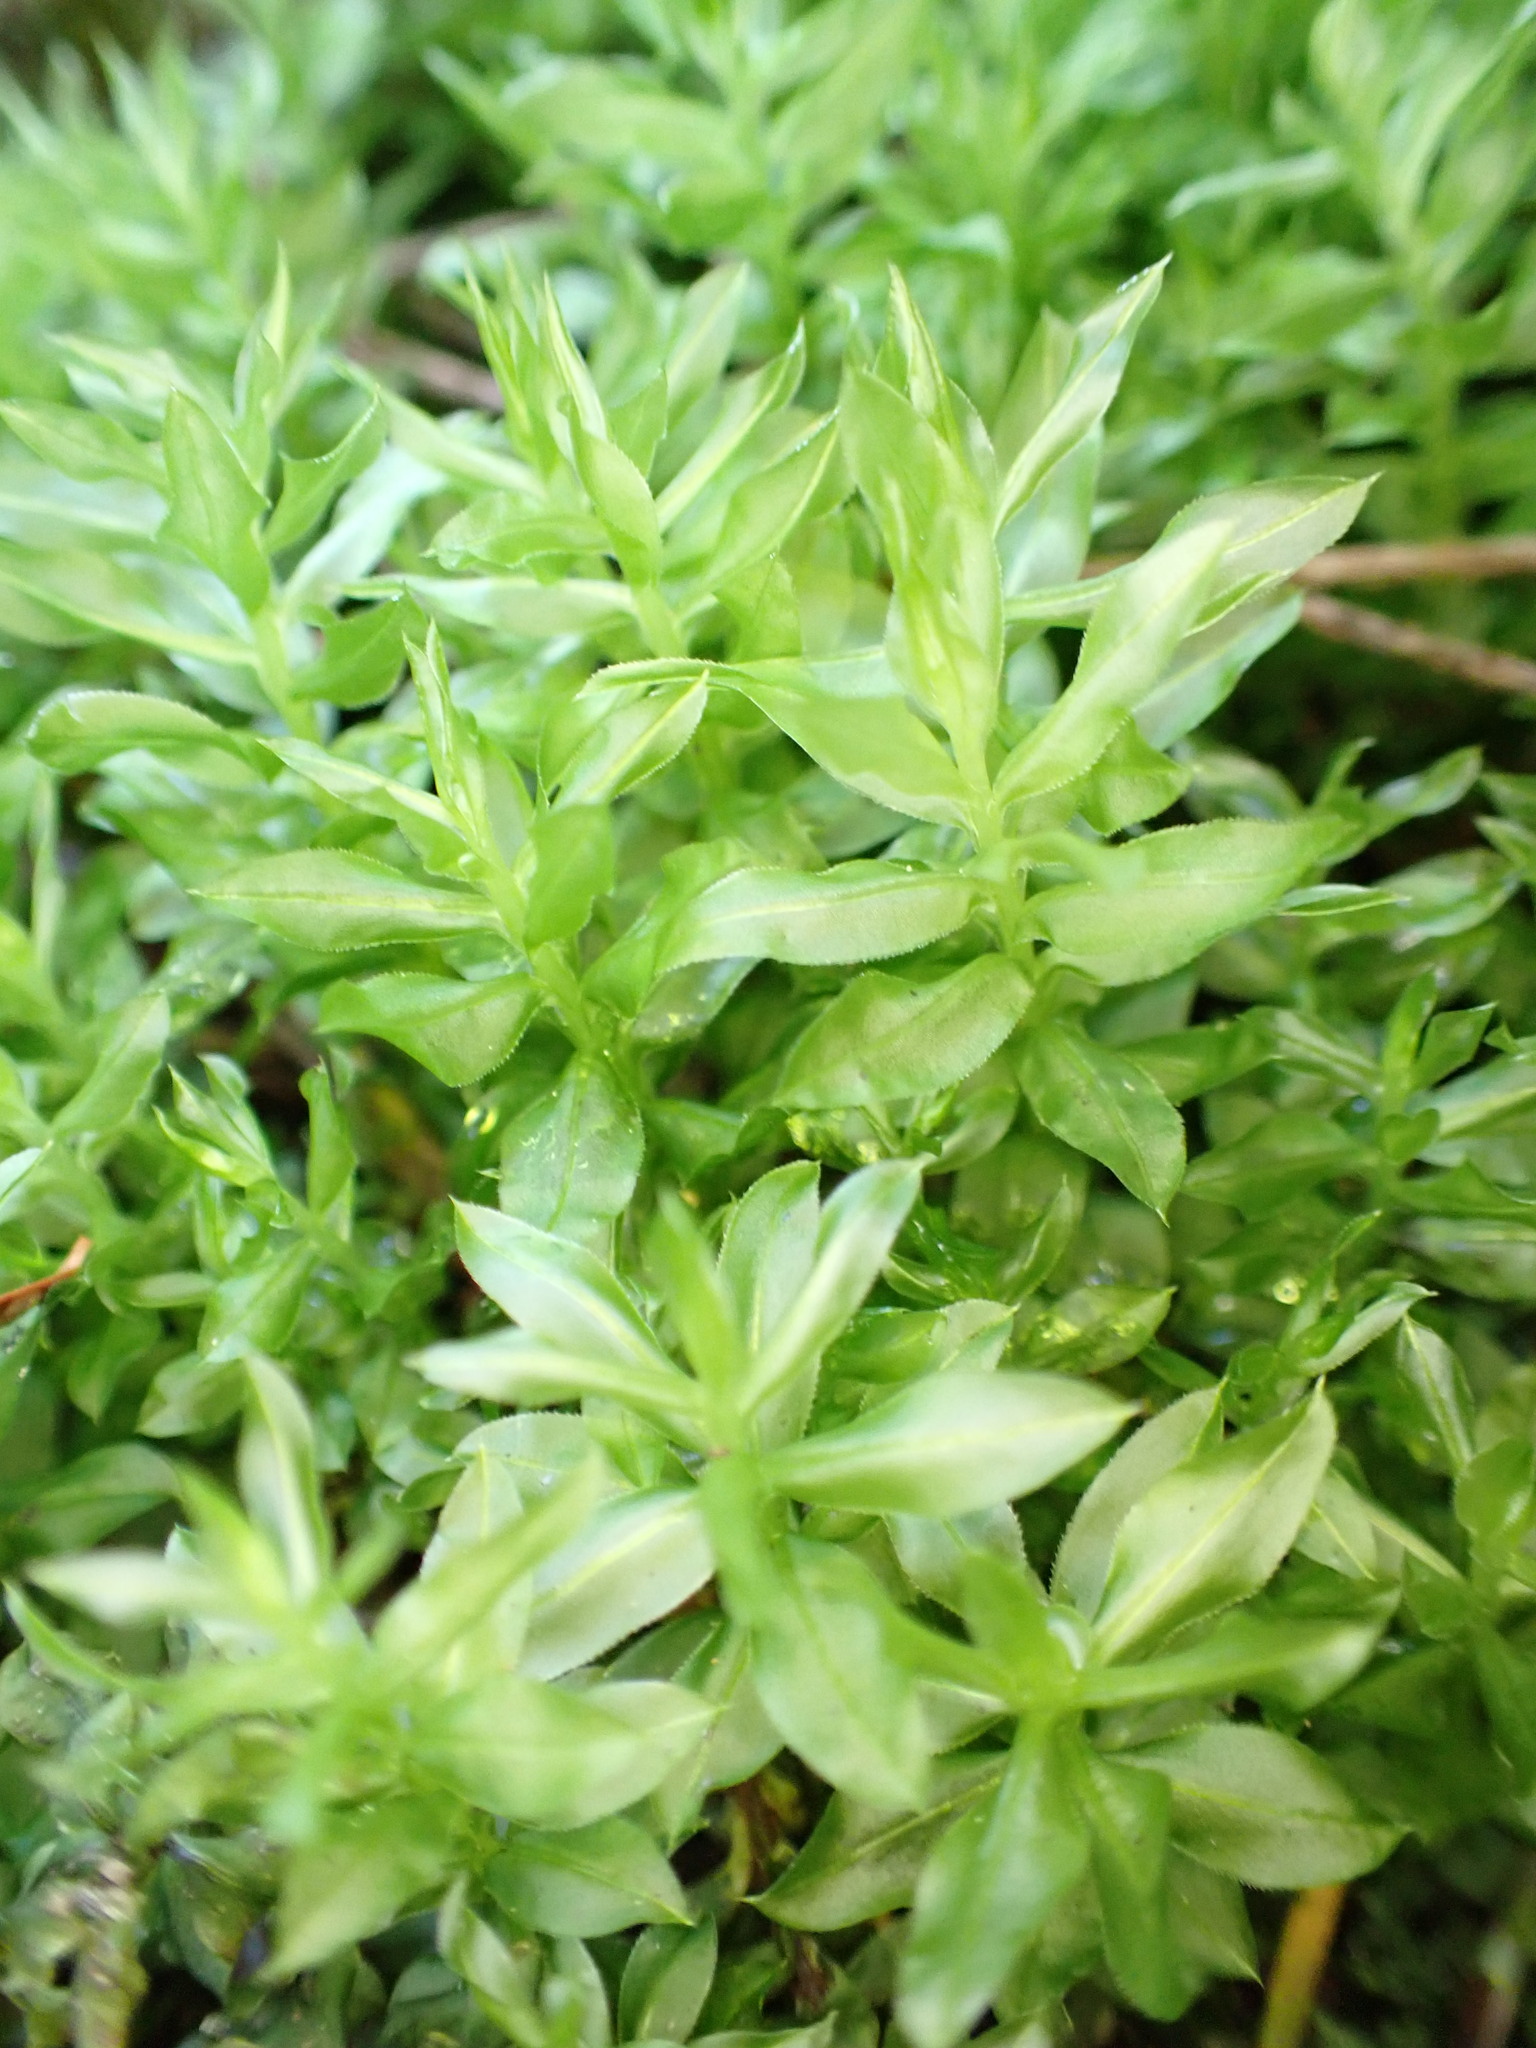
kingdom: Plantae
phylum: Bryophyta
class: Bryopsida
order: Bryales
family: Mniaceae
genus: Plagiomnium
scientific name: Plagiomnium insigne
